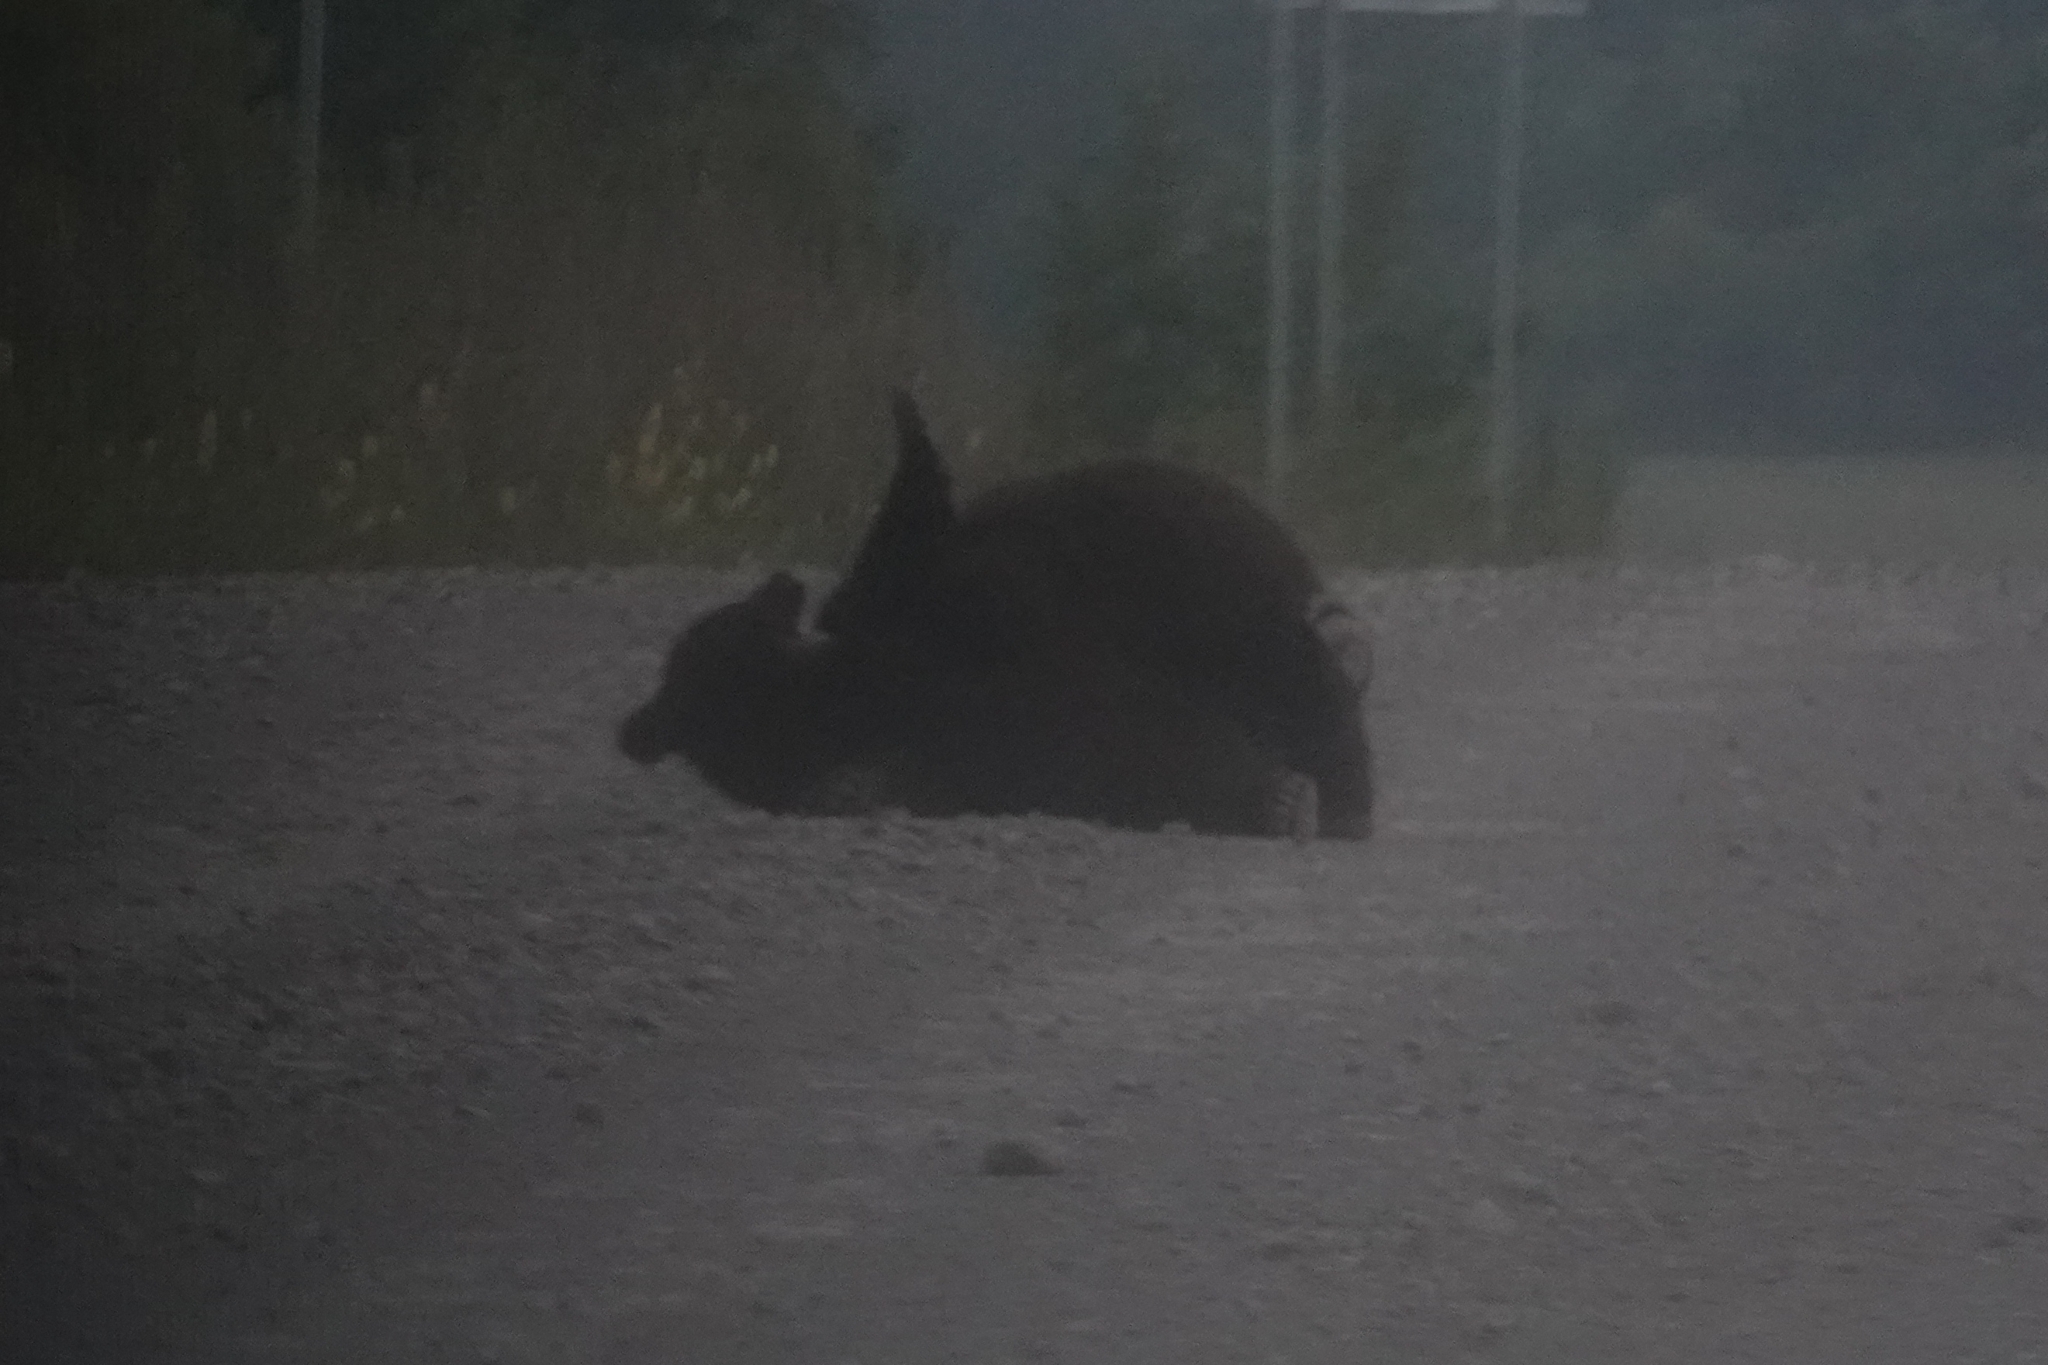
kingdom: Animalia
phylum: Chordata
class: Mammalia
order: Carnivora
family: Ursidae
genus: Ursus
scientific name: Ursus arctos
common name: Brown bear
